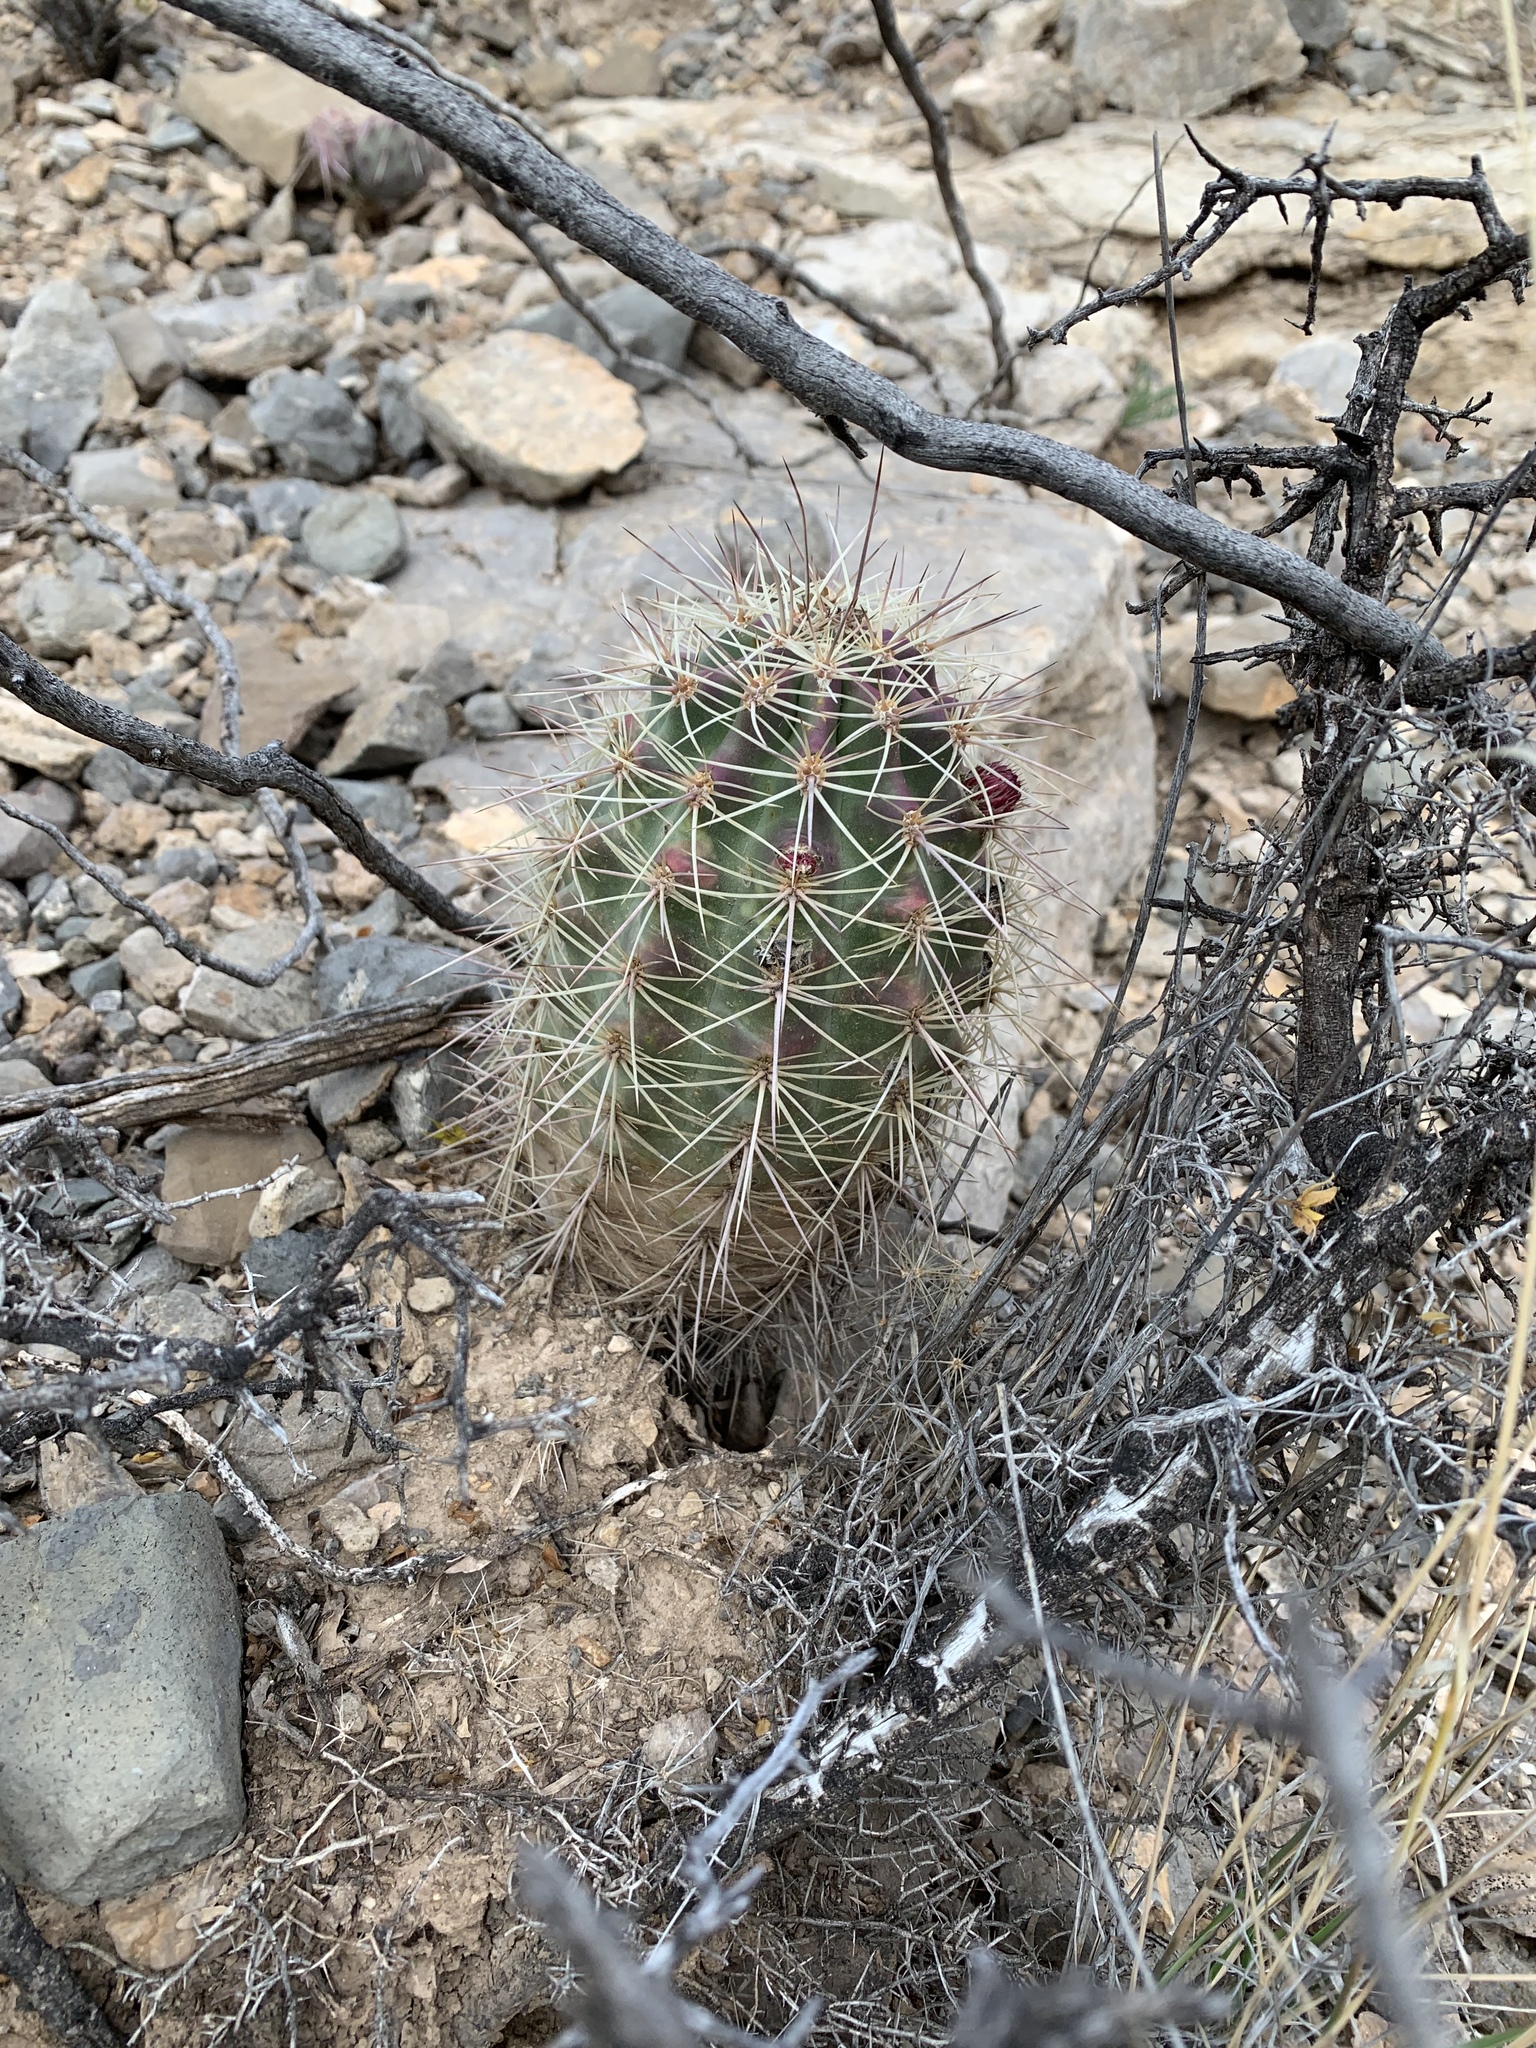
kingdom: Plantae
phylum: Tracheophyta
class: Magnoliopsida
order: Caryophyllales
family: Cactaceae
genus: Echinocereus
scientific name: Echinocereus coccineus
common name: Scarlet hedgehog cactus
